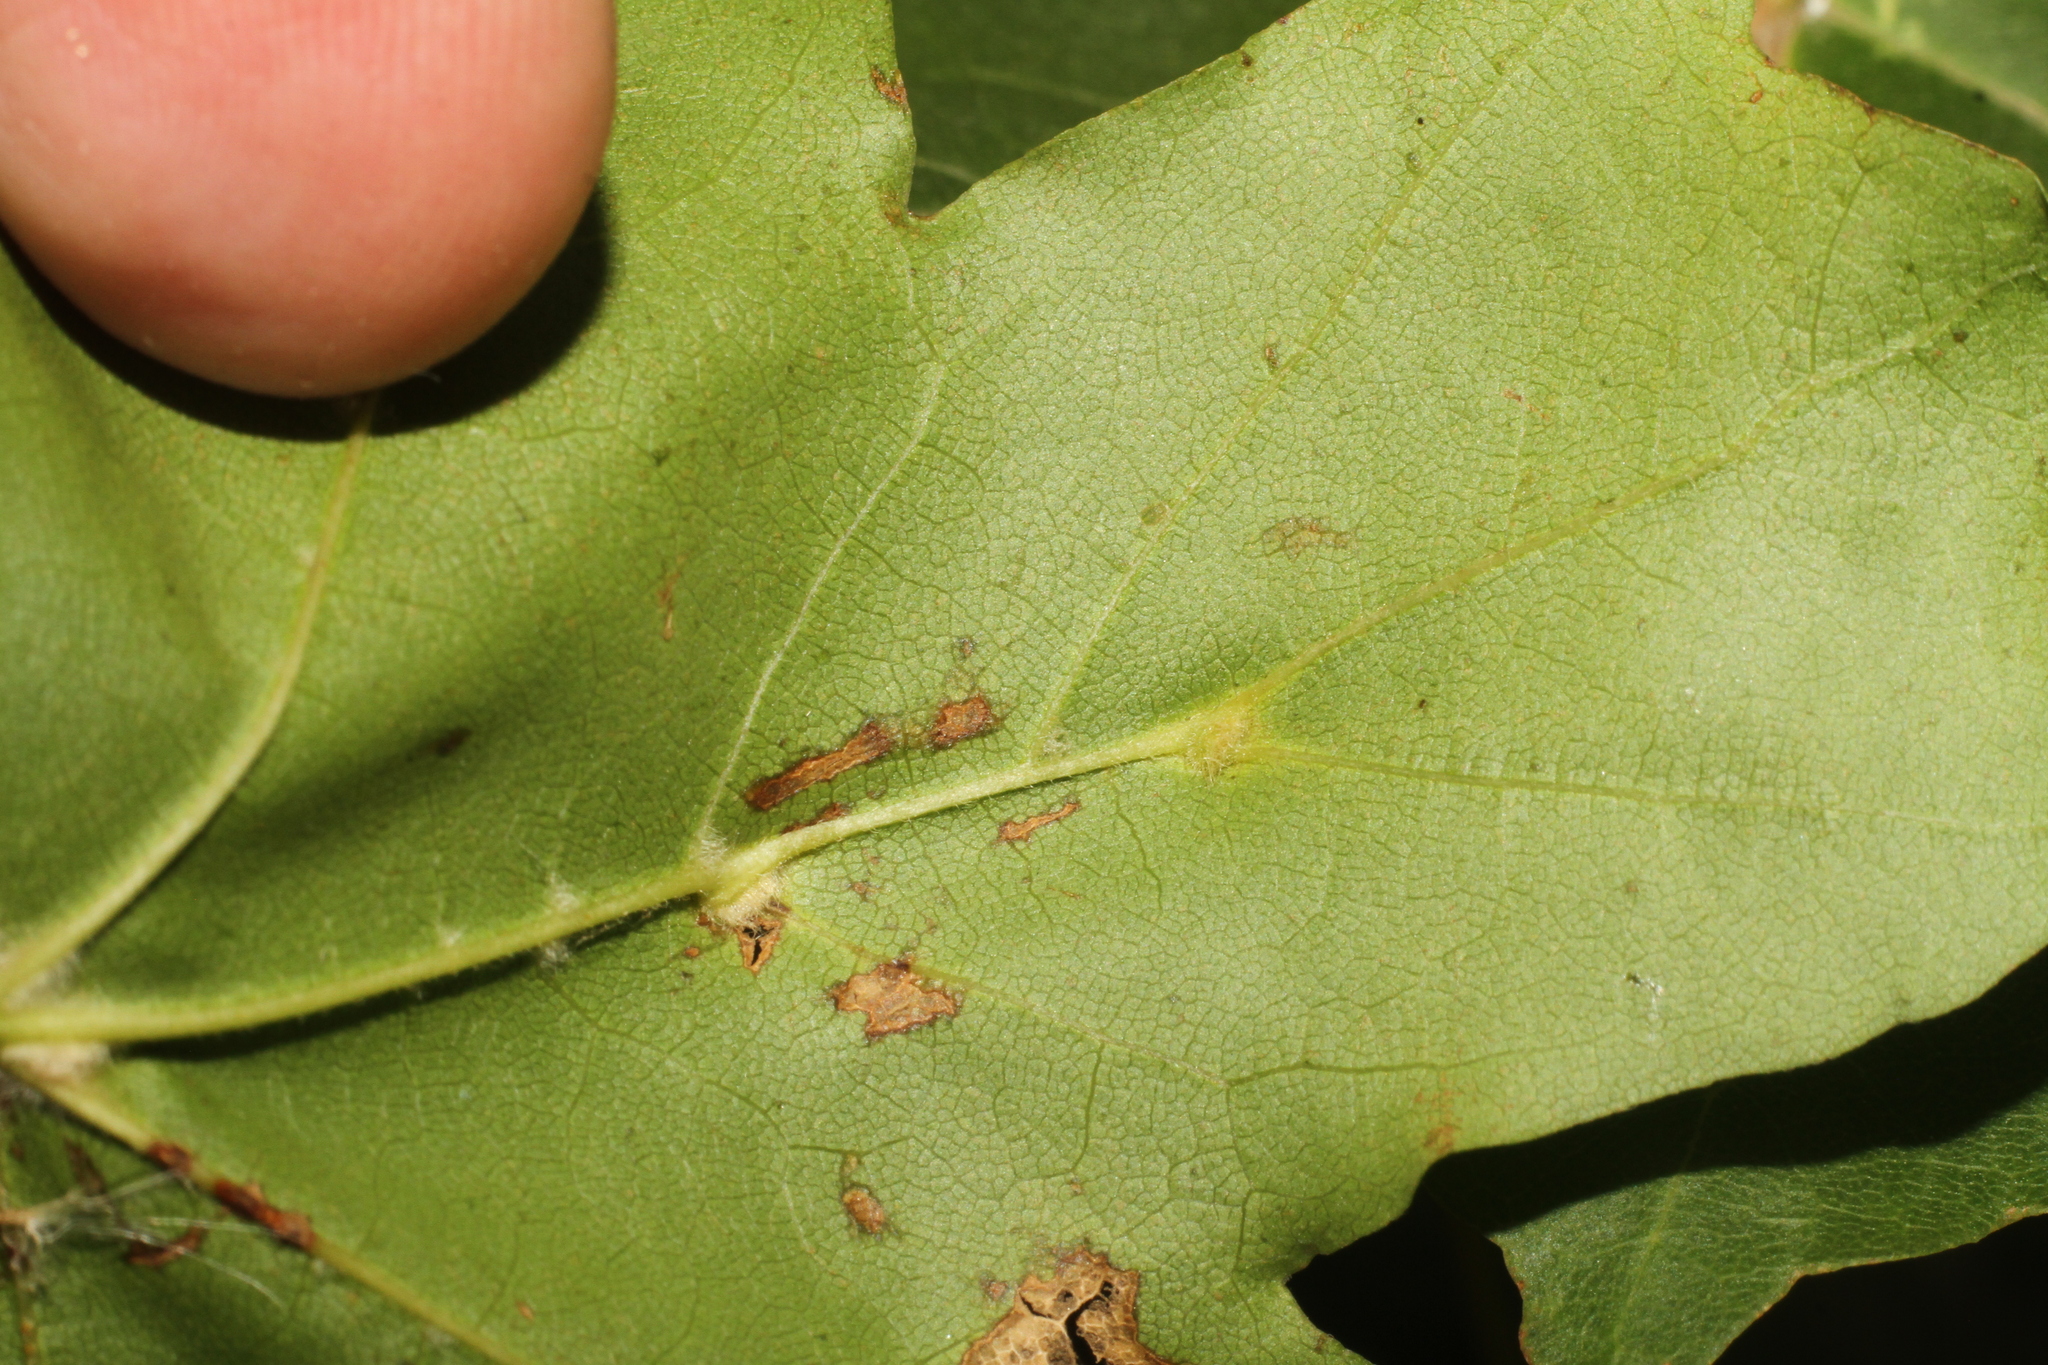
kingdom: Animalia
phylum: Arthropoda
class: Arachnida
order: Trombidiformes
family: Eriophyidae
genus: Aceria
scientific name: Aceria macrochelus
